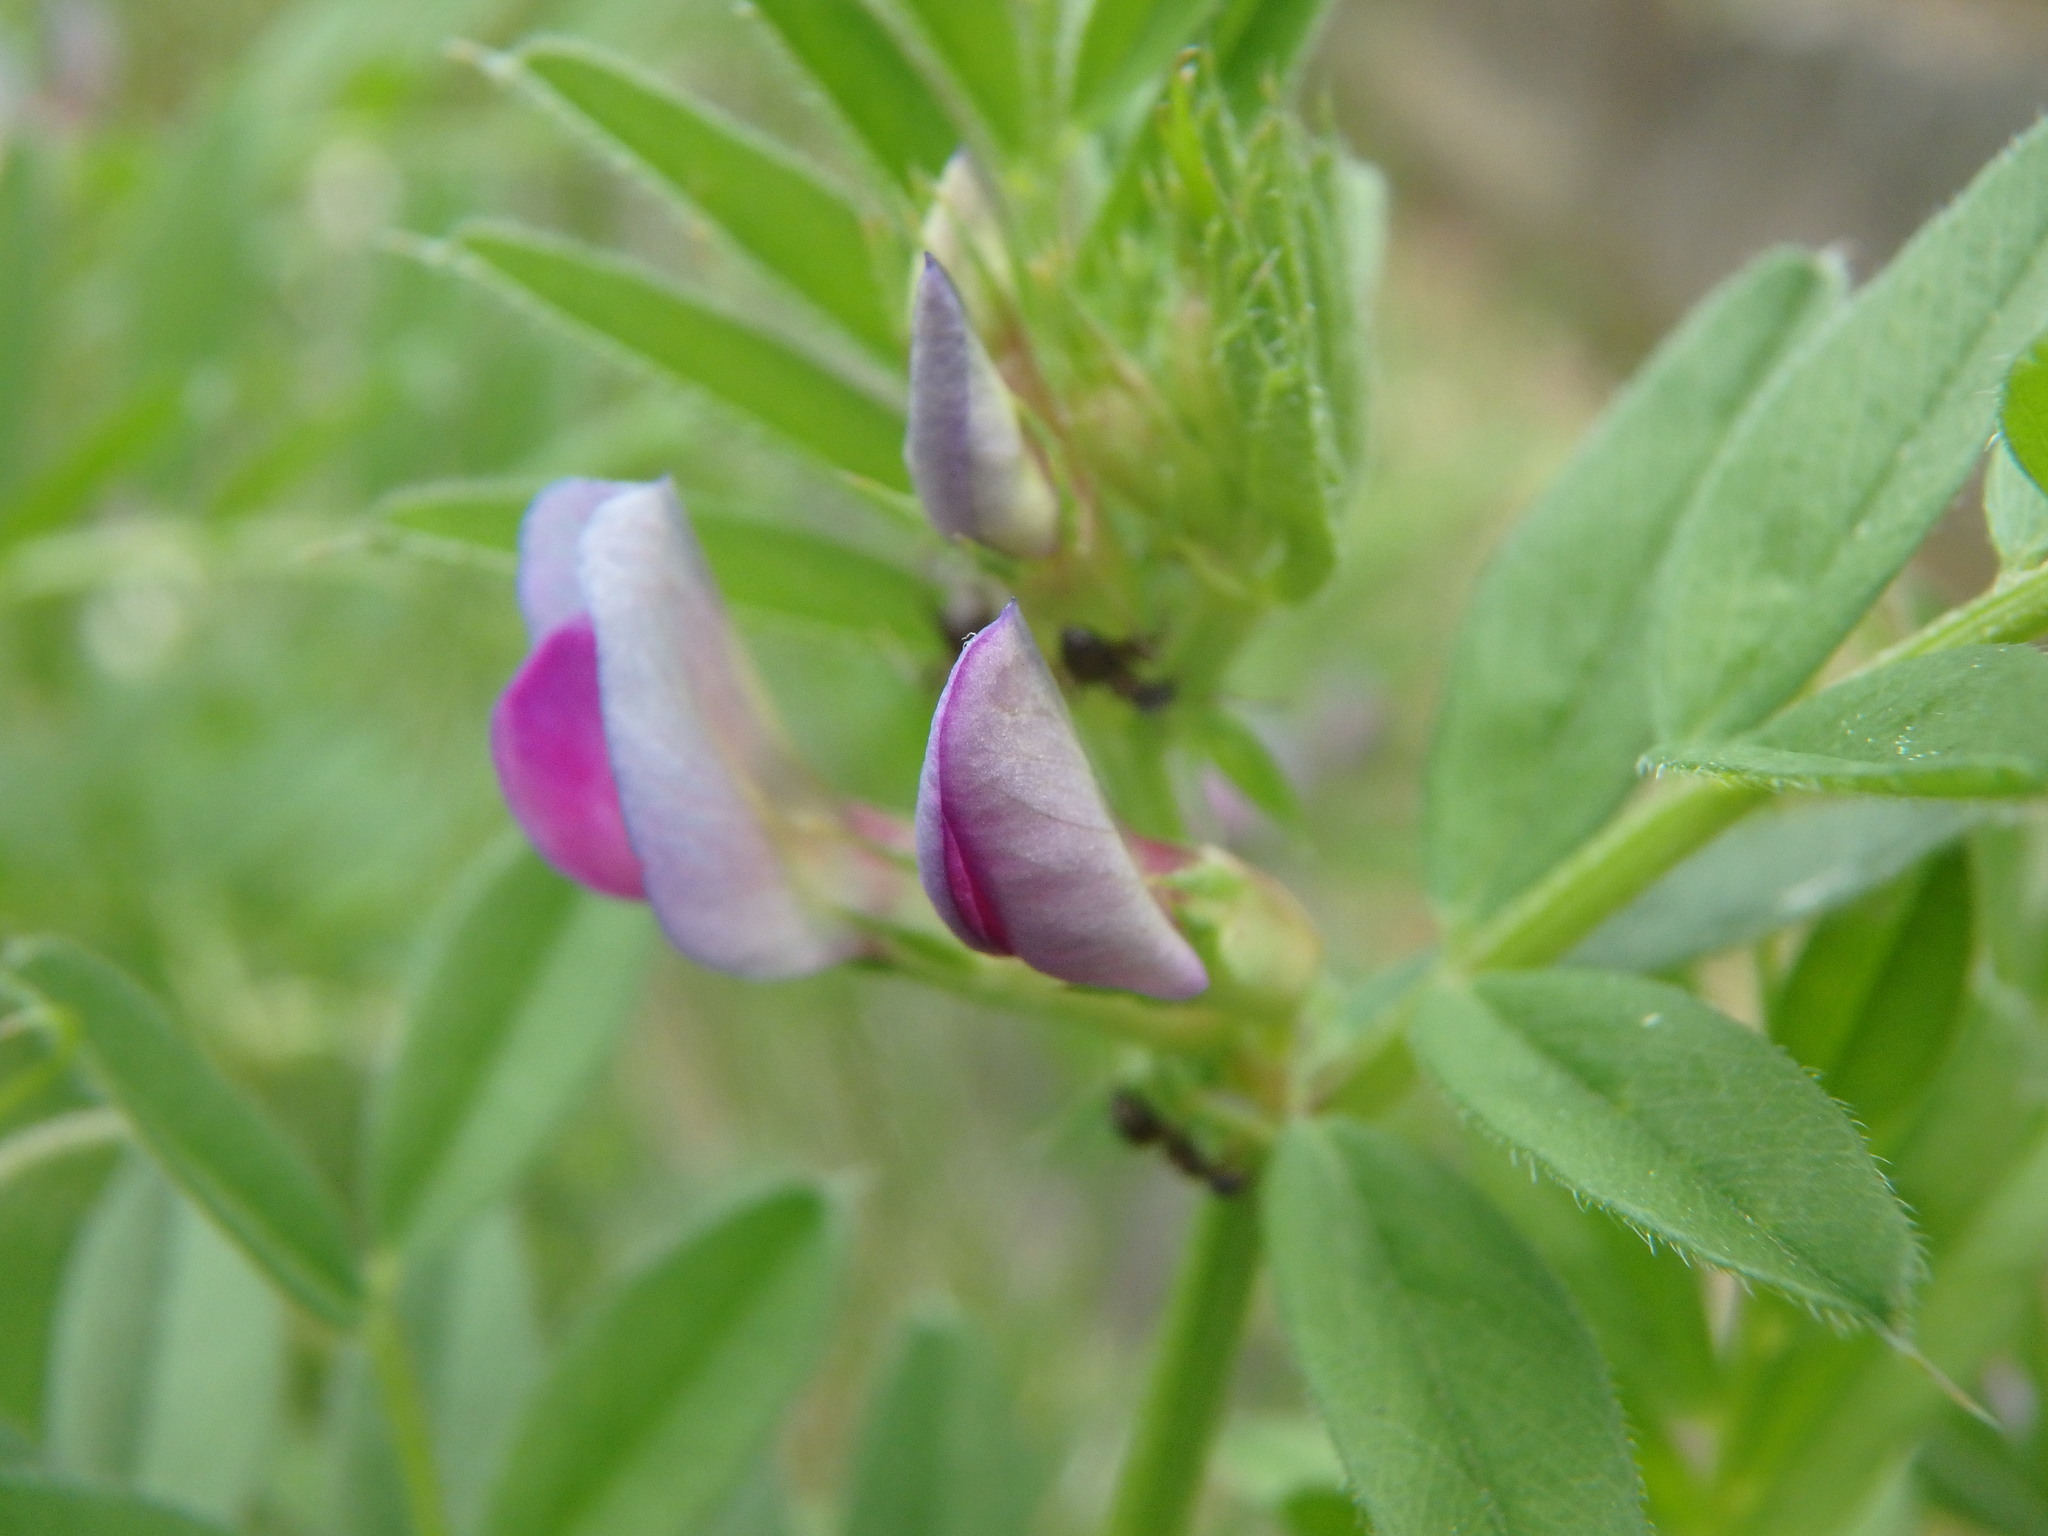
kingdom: Plantae
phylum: Tracheophyta
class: Magnoliopsida
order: Fabales
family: Fabaceae
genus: Vicia
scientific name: Vicia sativa
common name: Garden vetch
